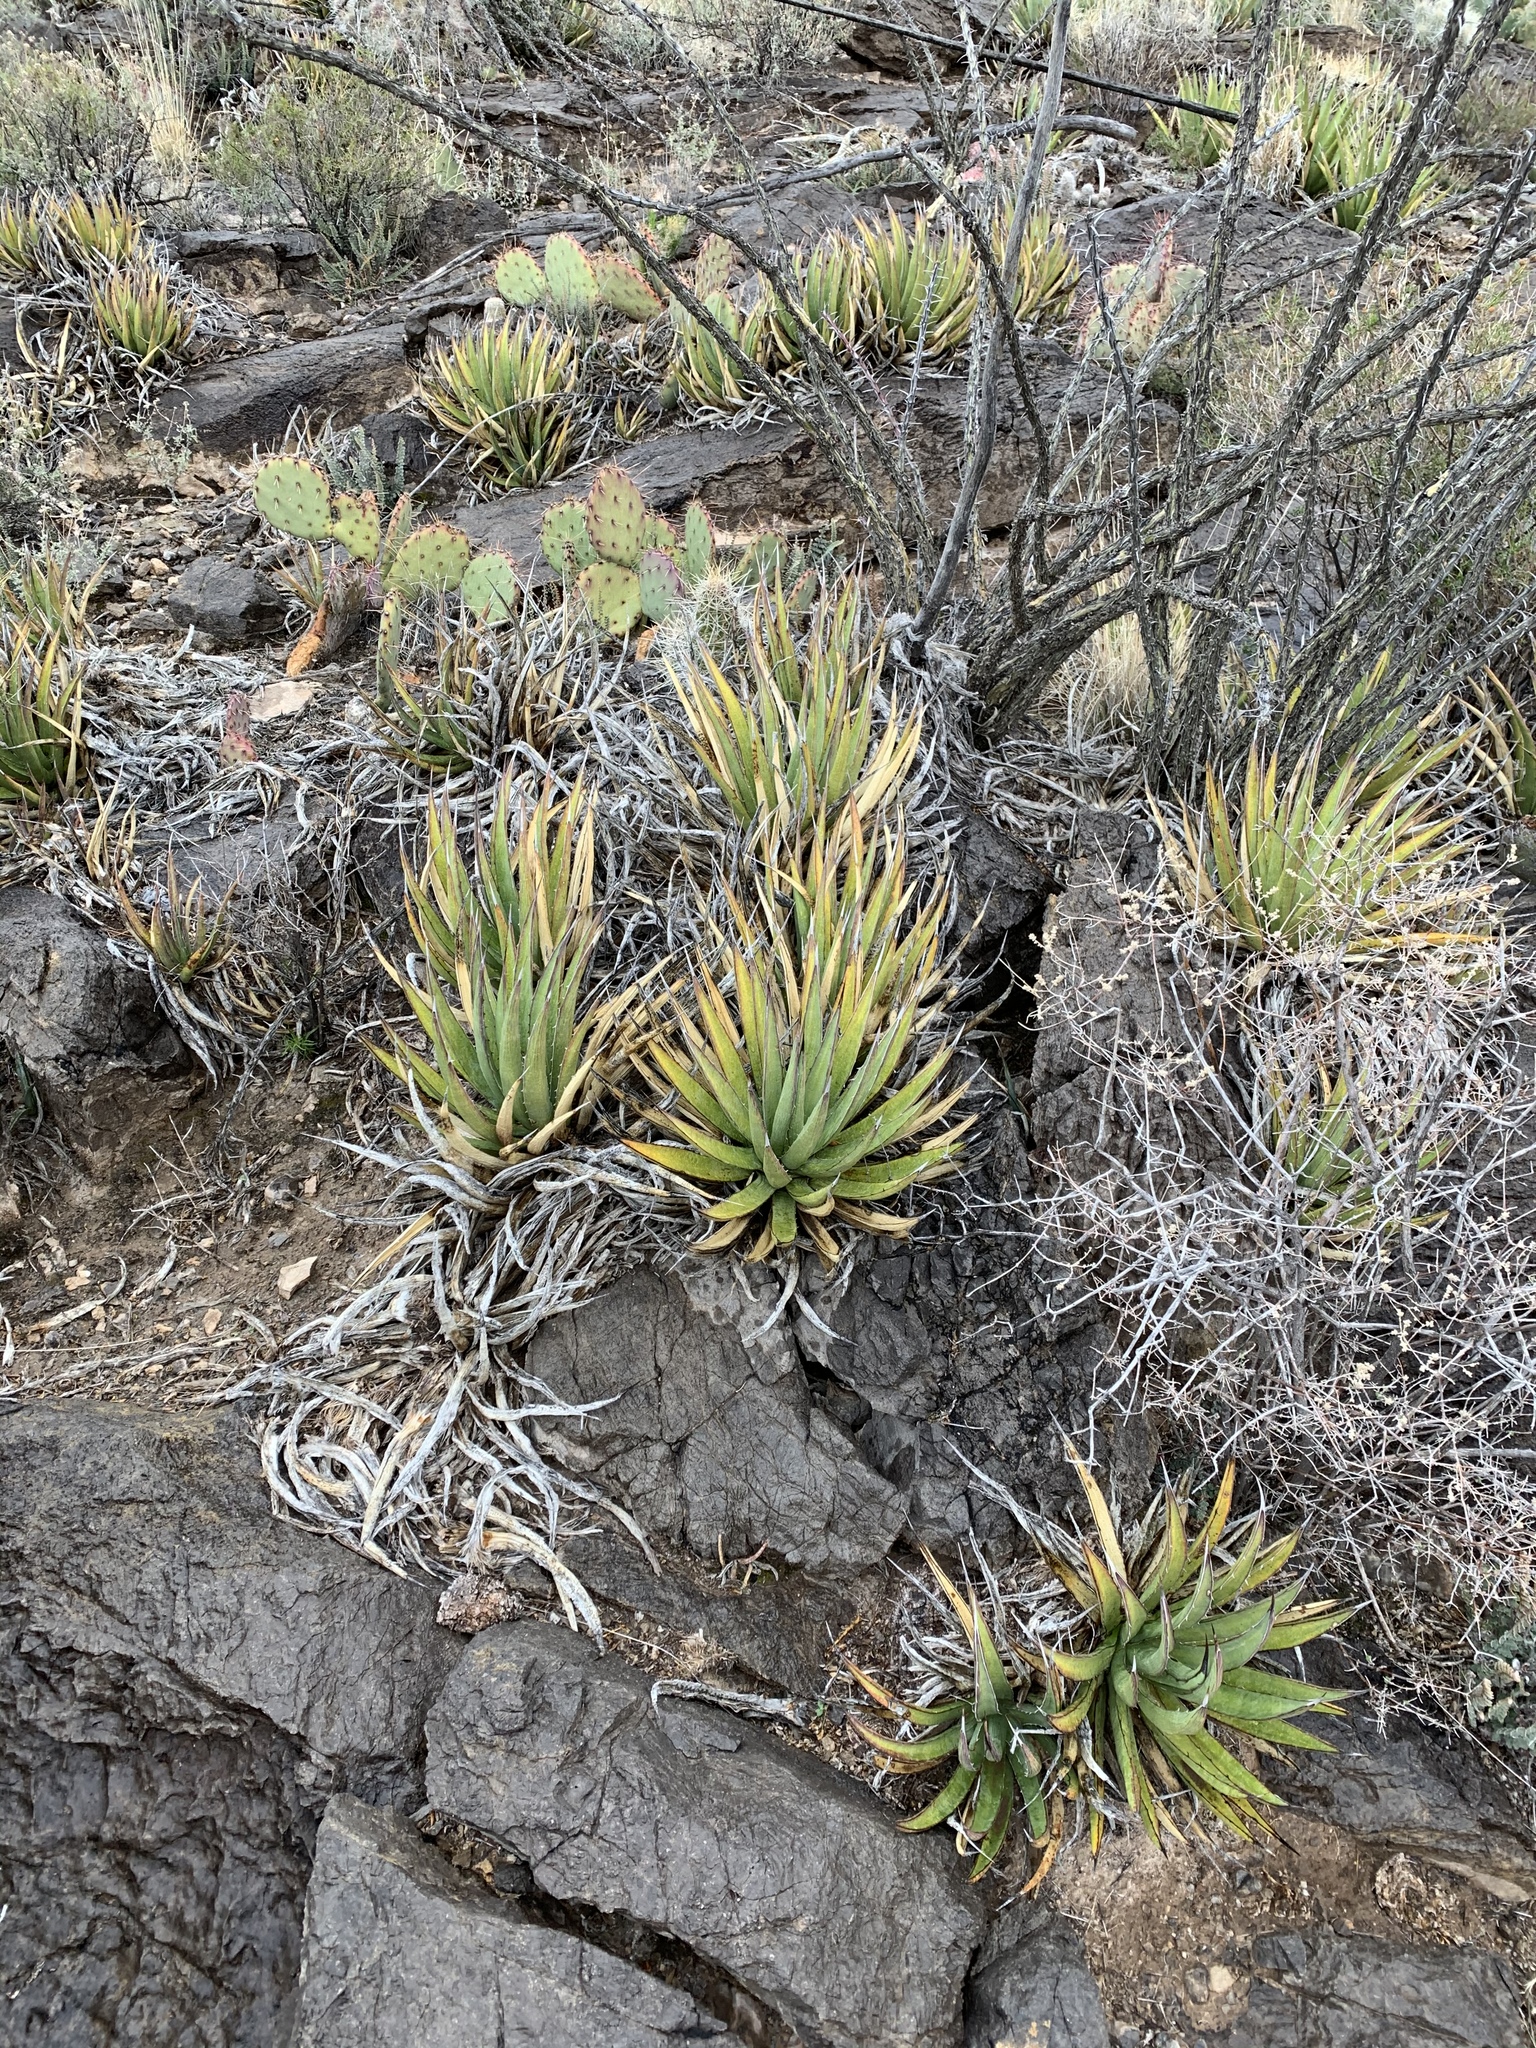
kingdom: Plantae
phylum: Tracheophyta
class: Liliopsida
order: Asparagales
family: Asparagaceae
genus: Agave
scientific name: Agave lechuguilla
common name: Lecheguilla agave
